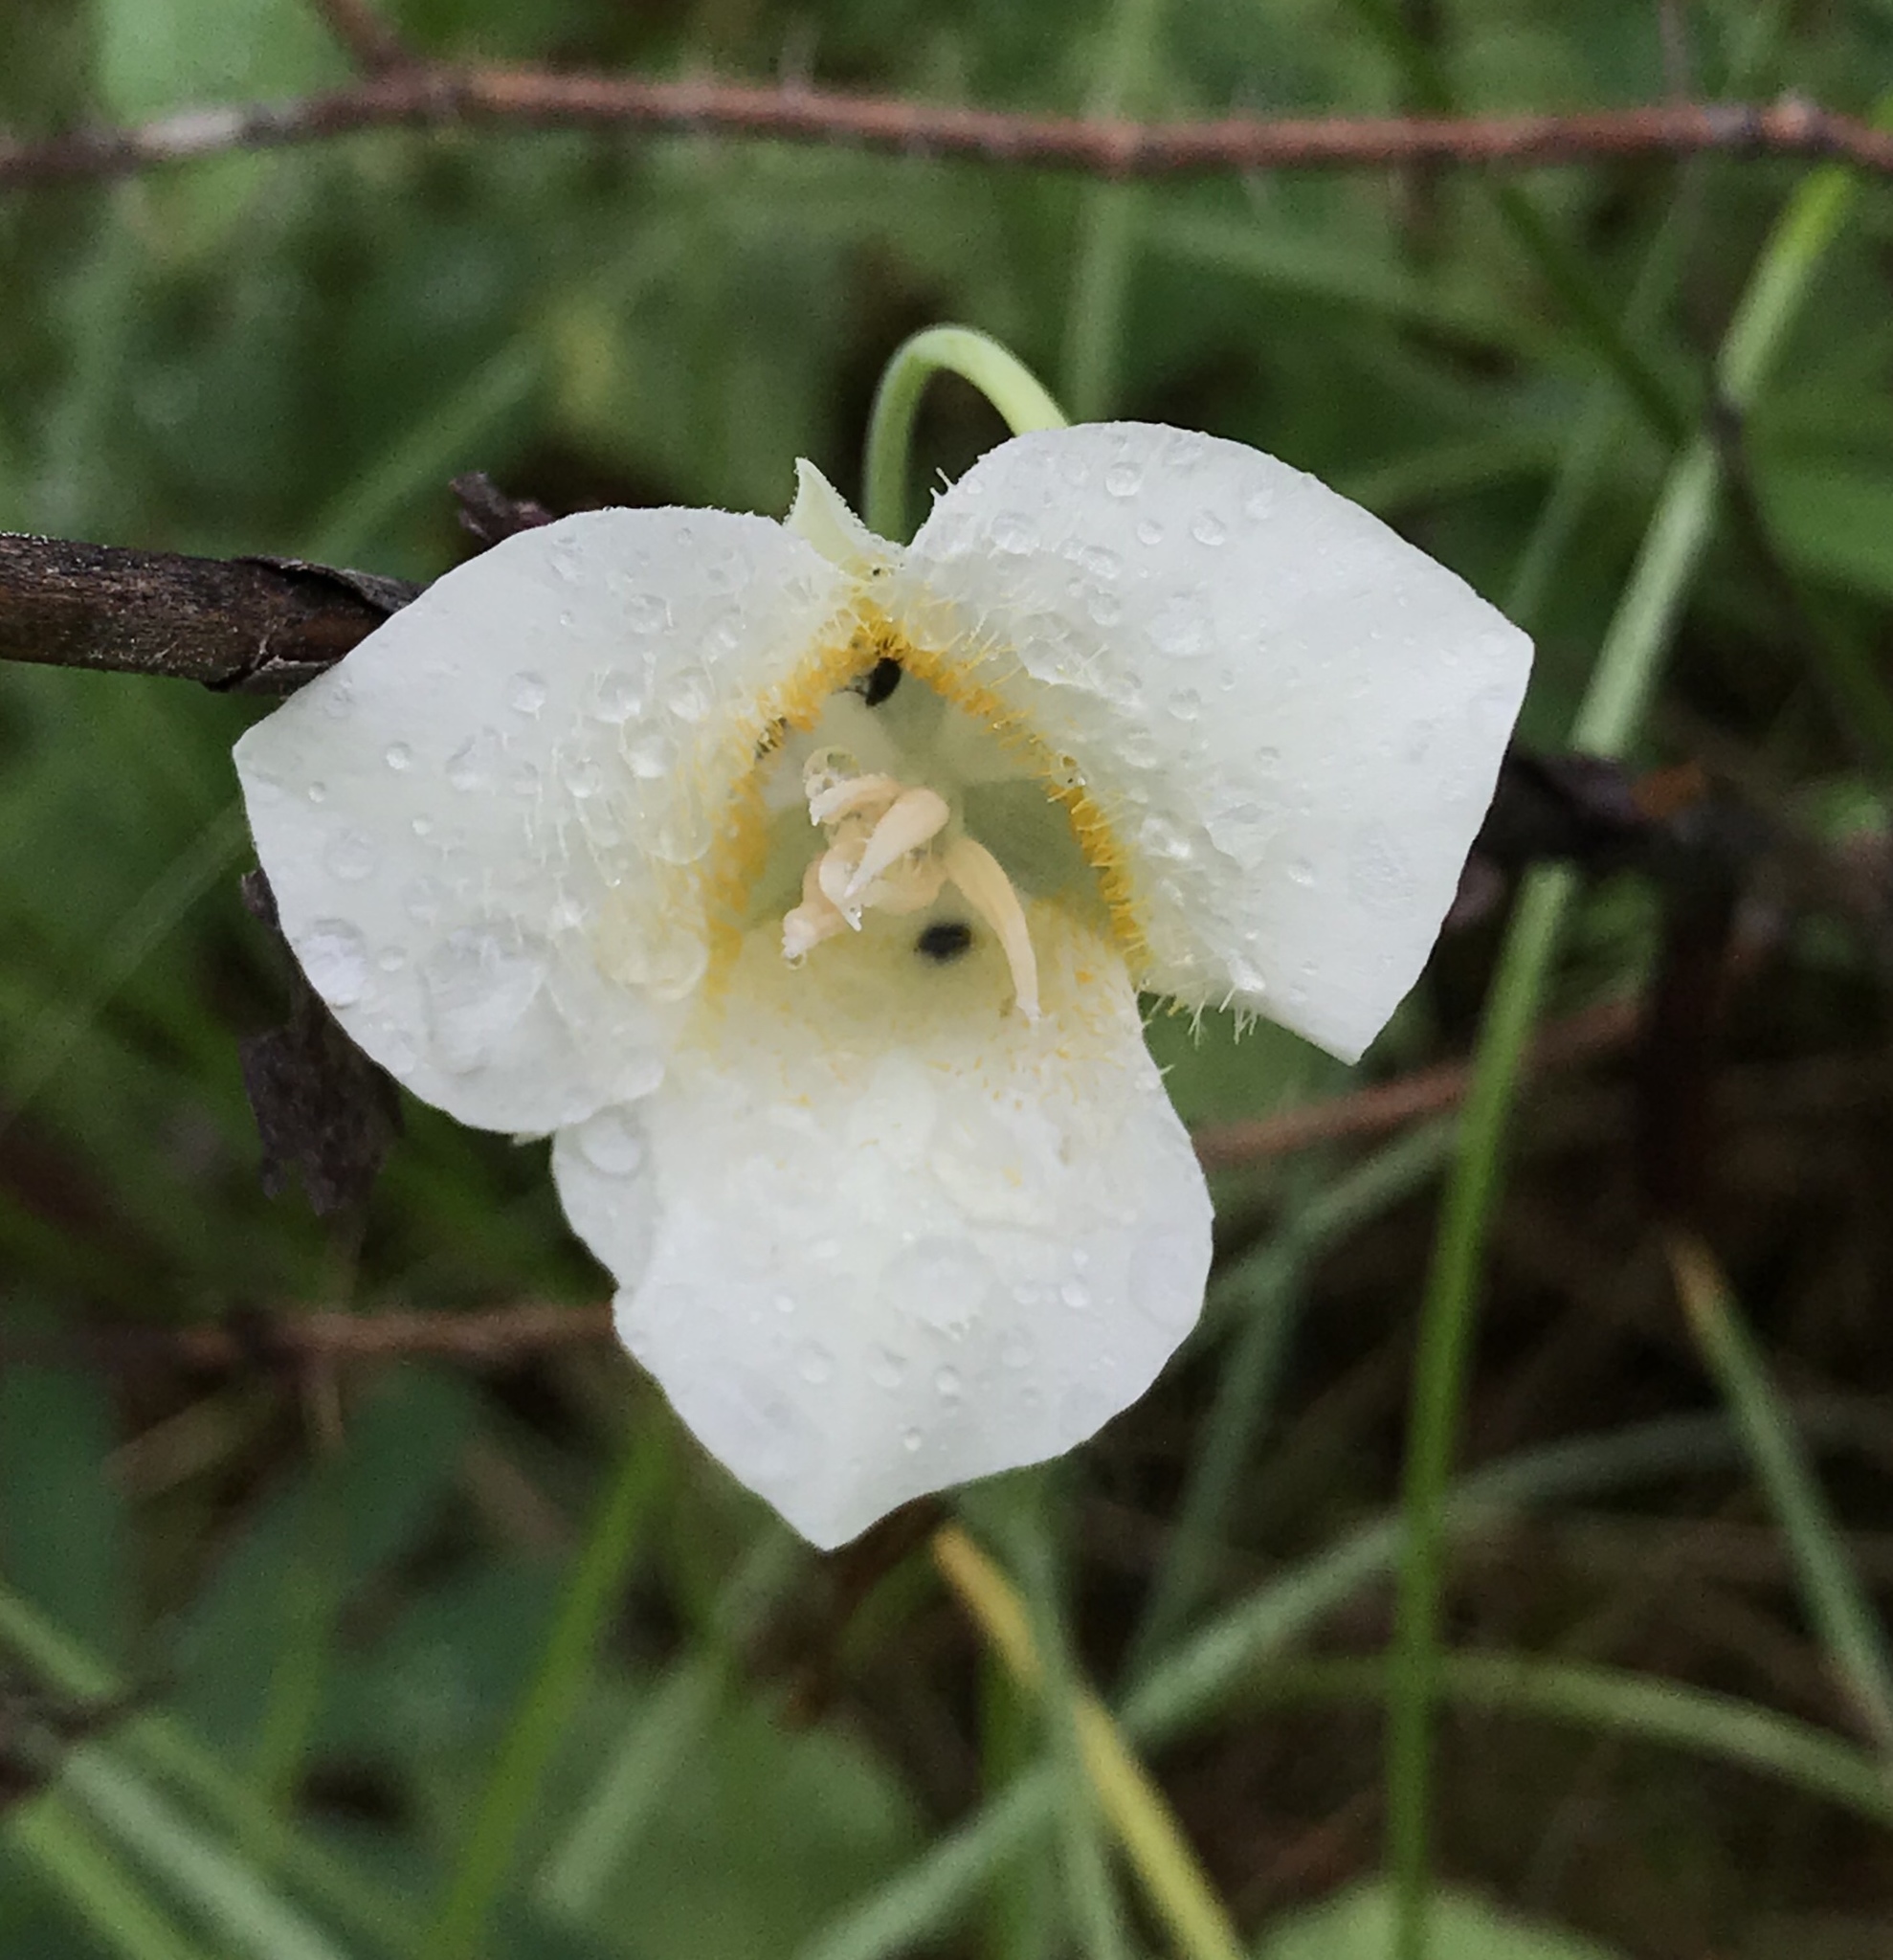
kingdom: Plantae
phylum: Tracheophyta
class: Liliopsida
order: Liliales
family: Liliaceae
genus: Calochortus
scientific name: Calochortus apiculatus
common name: Baker's mariposa lily
